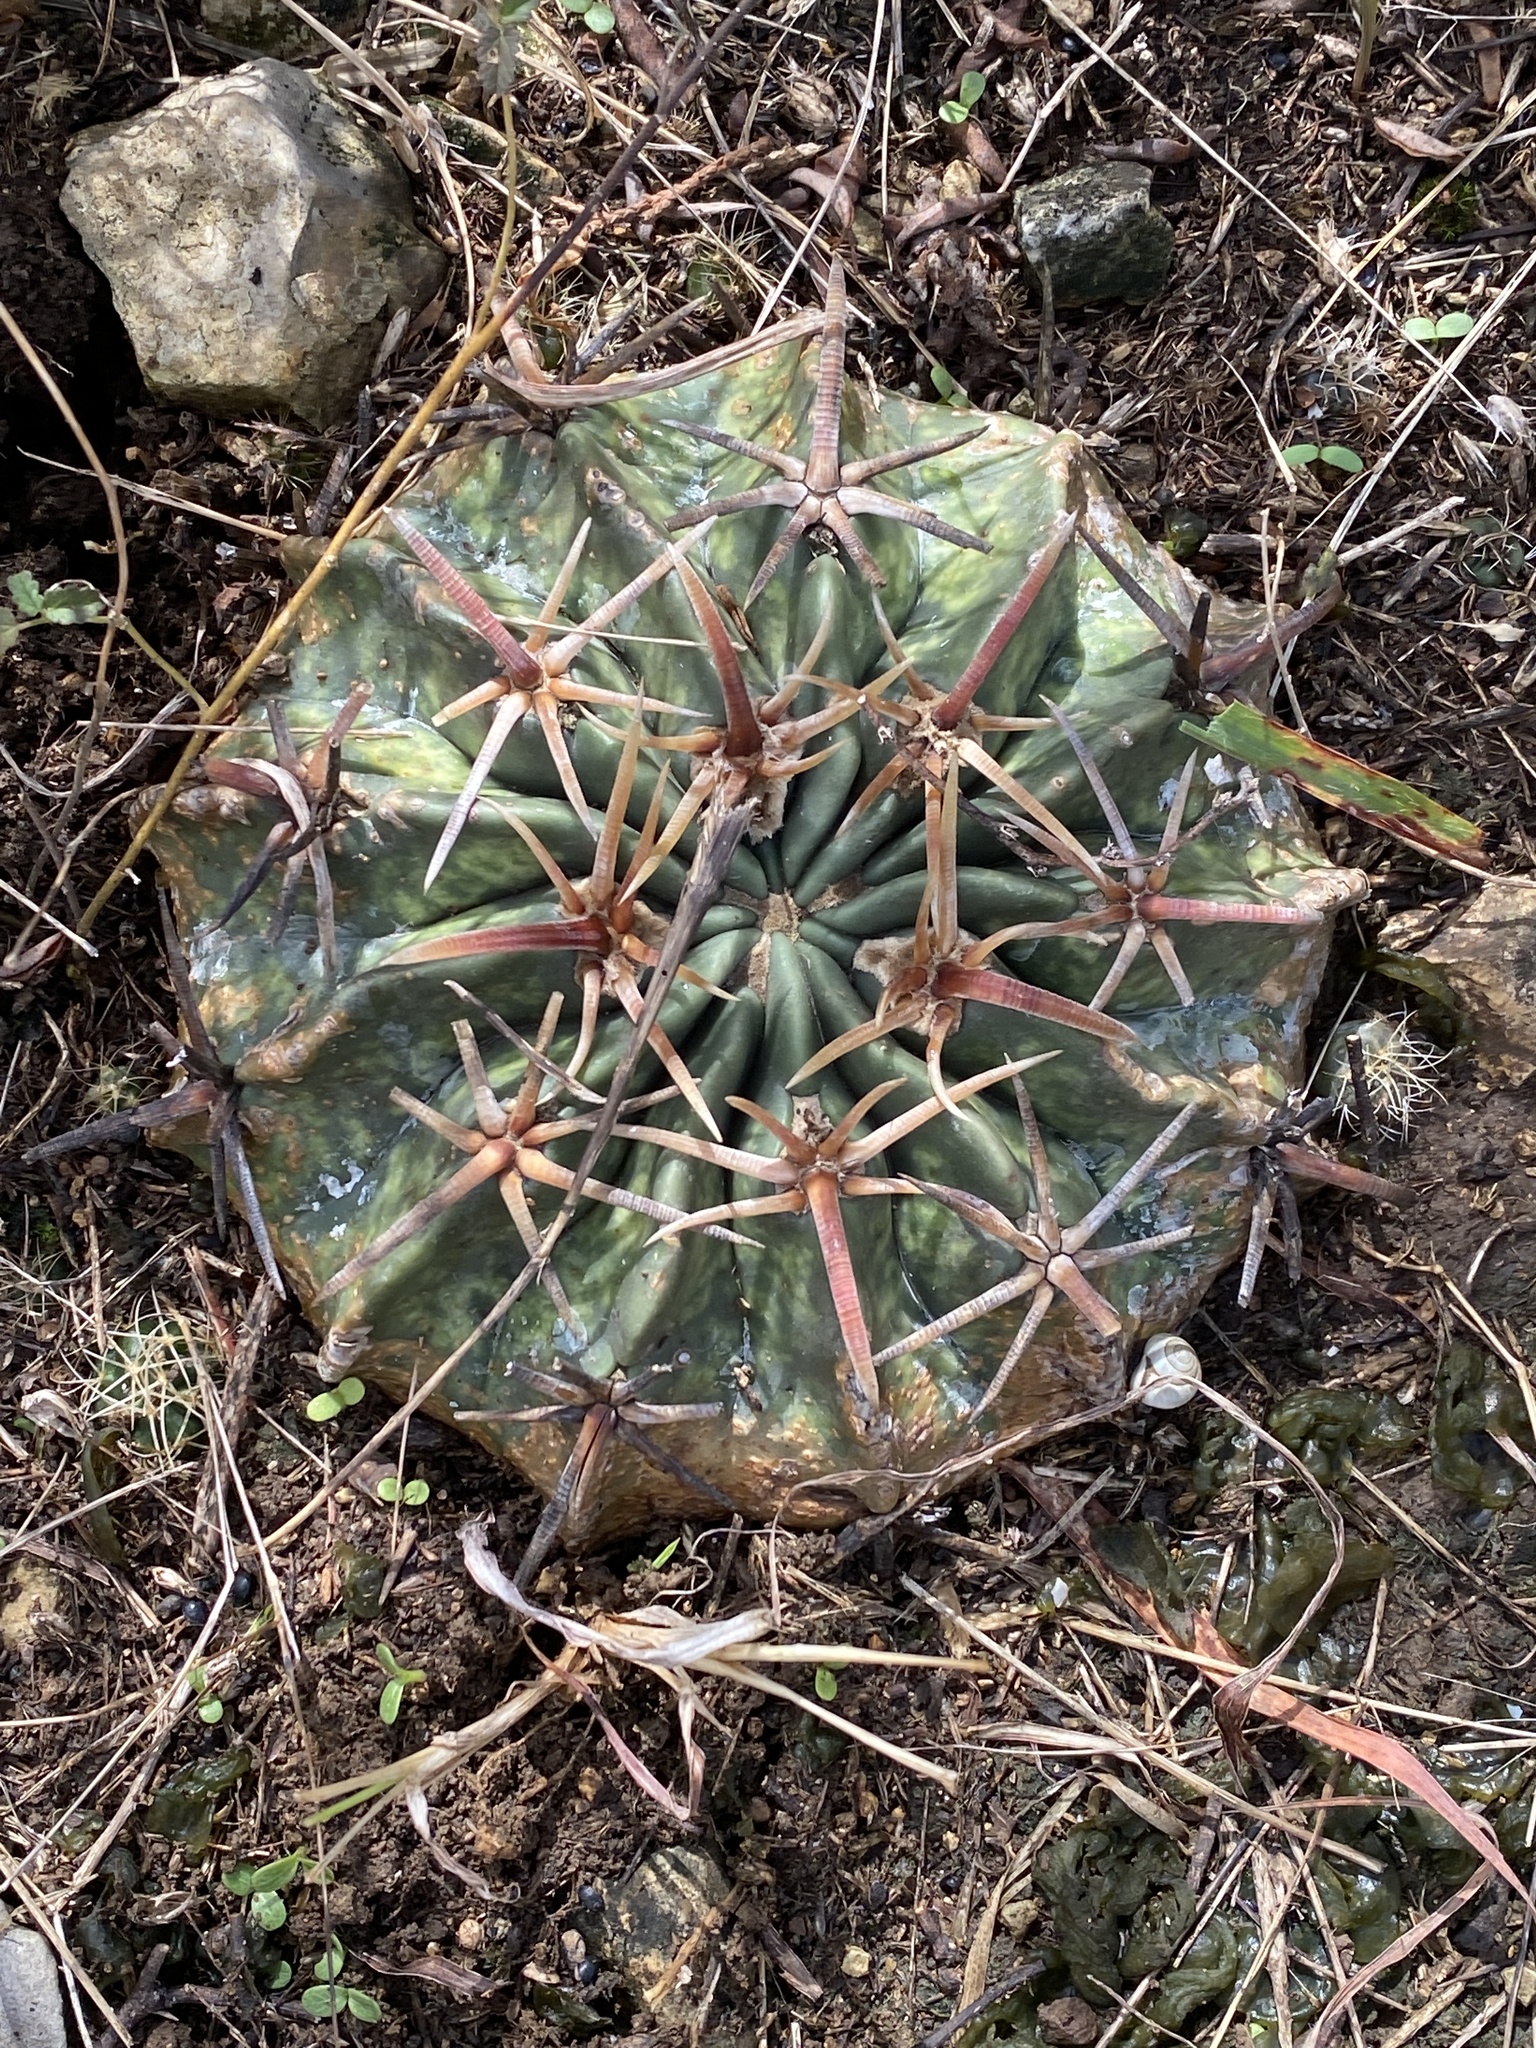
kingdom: Plantae
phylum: Tracheophyta
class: Magnoliopsida
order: Caryophyllales
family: Cactaceae
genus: Echinocactus
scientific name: Echinocactus texensis
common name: Devil's pincushion
